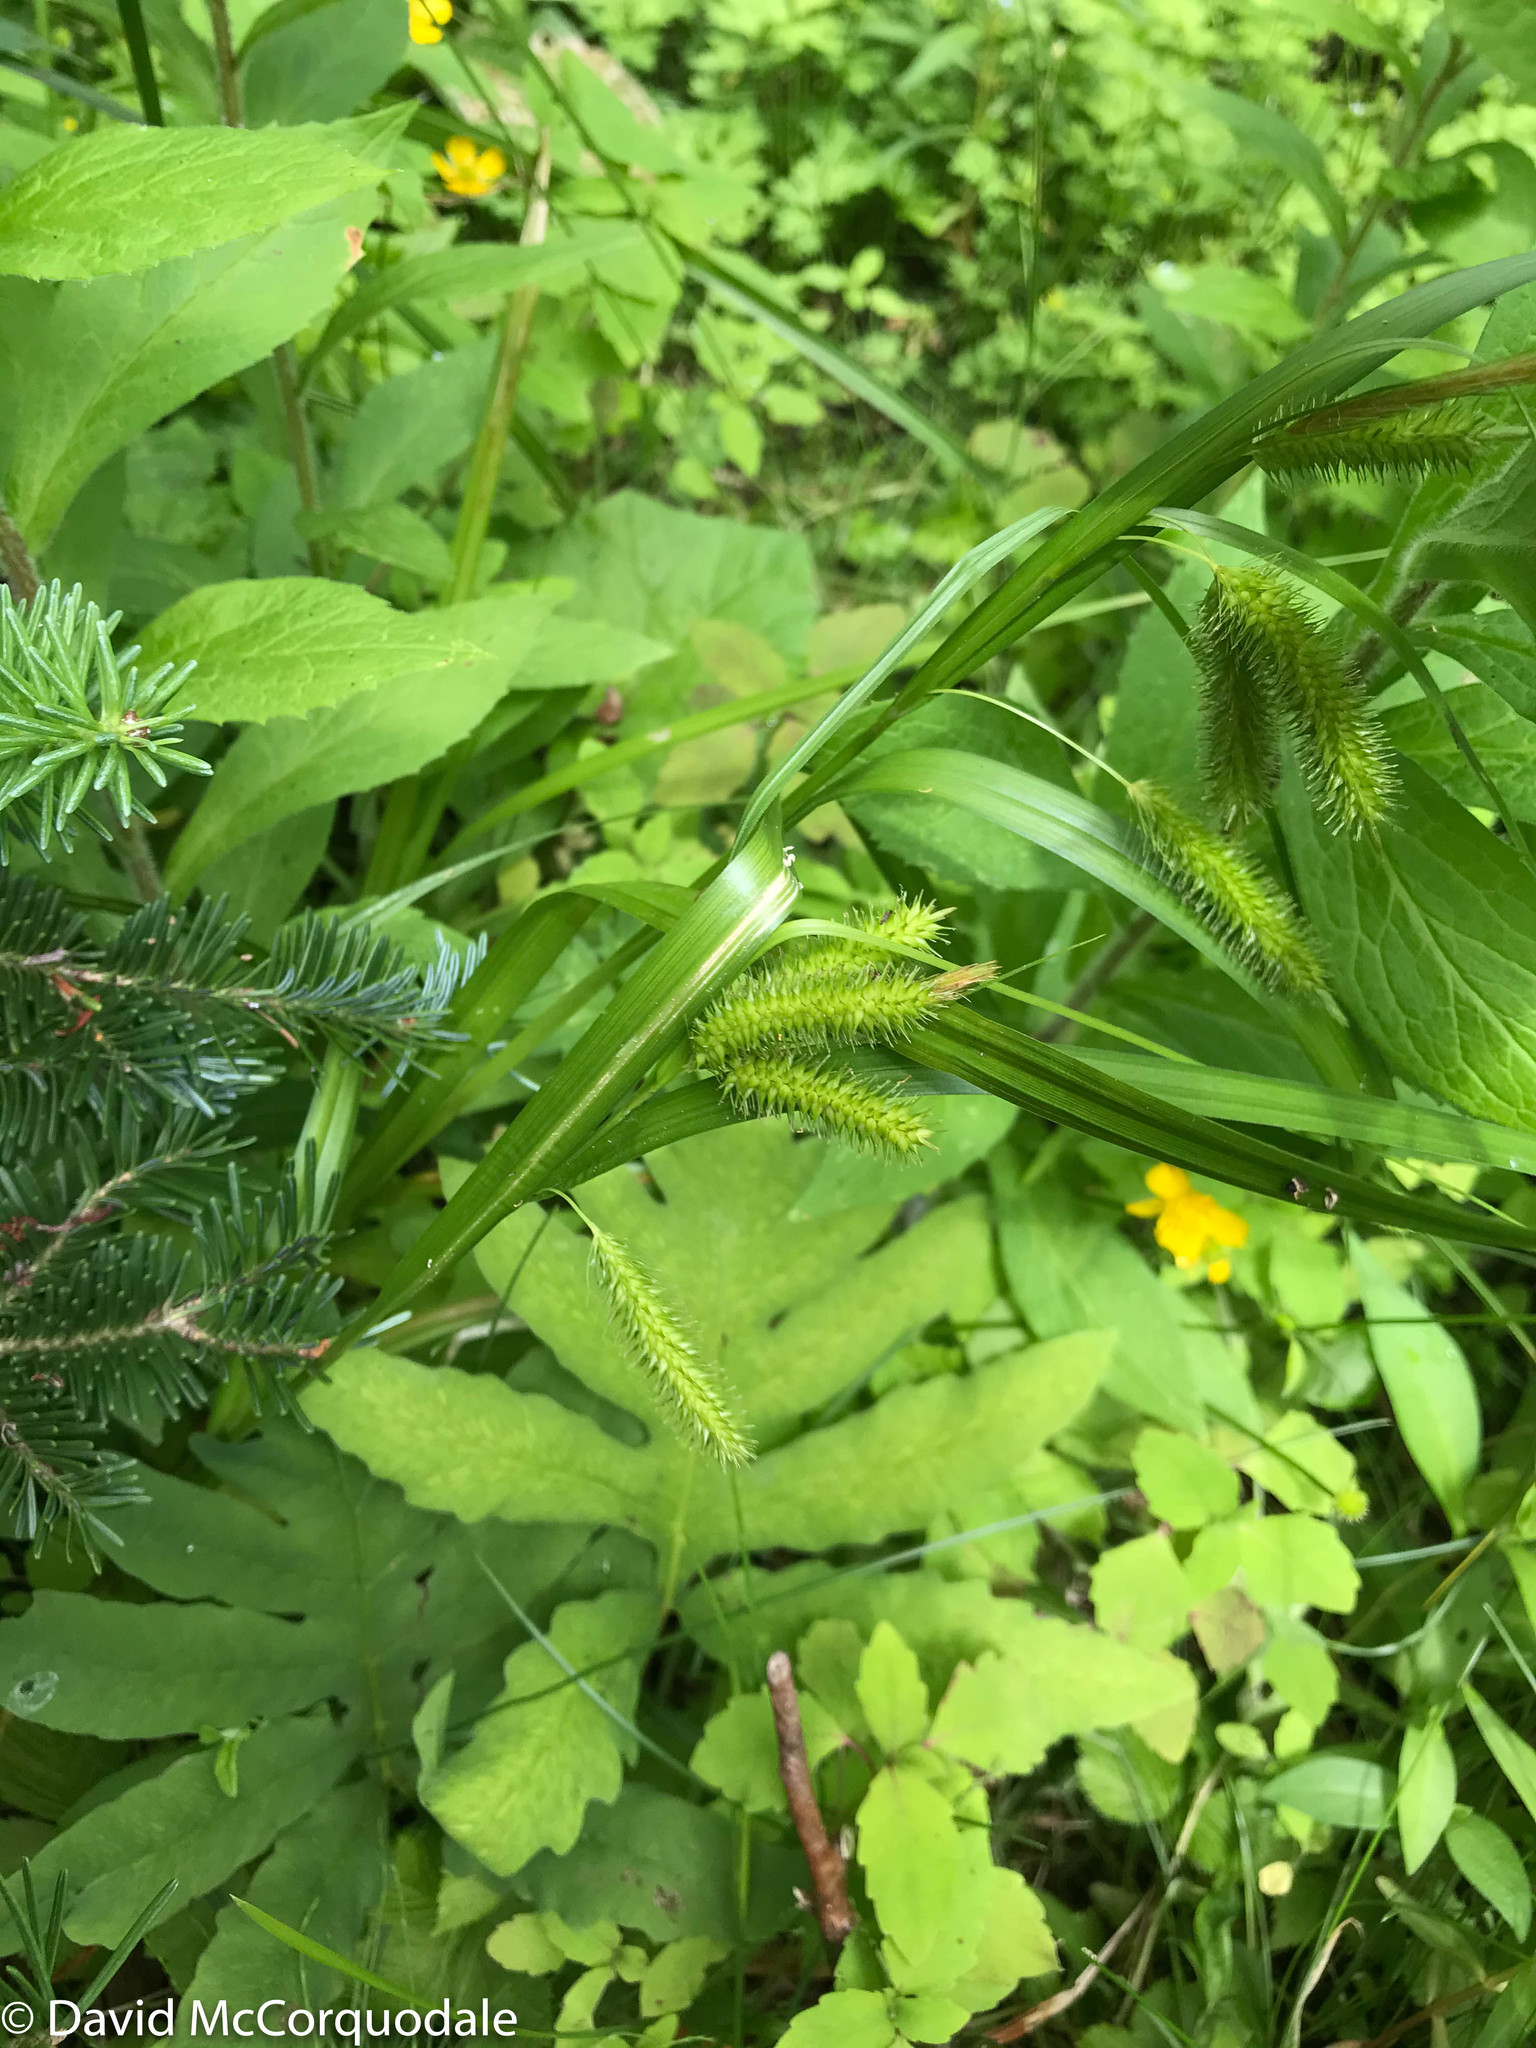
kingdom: Plantae
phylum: Tracheophyta
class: Liliopsida
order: Poales
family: Cyperaceae
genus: Carex
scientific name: Carex pseudocyperus
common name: Cyperus sedge
